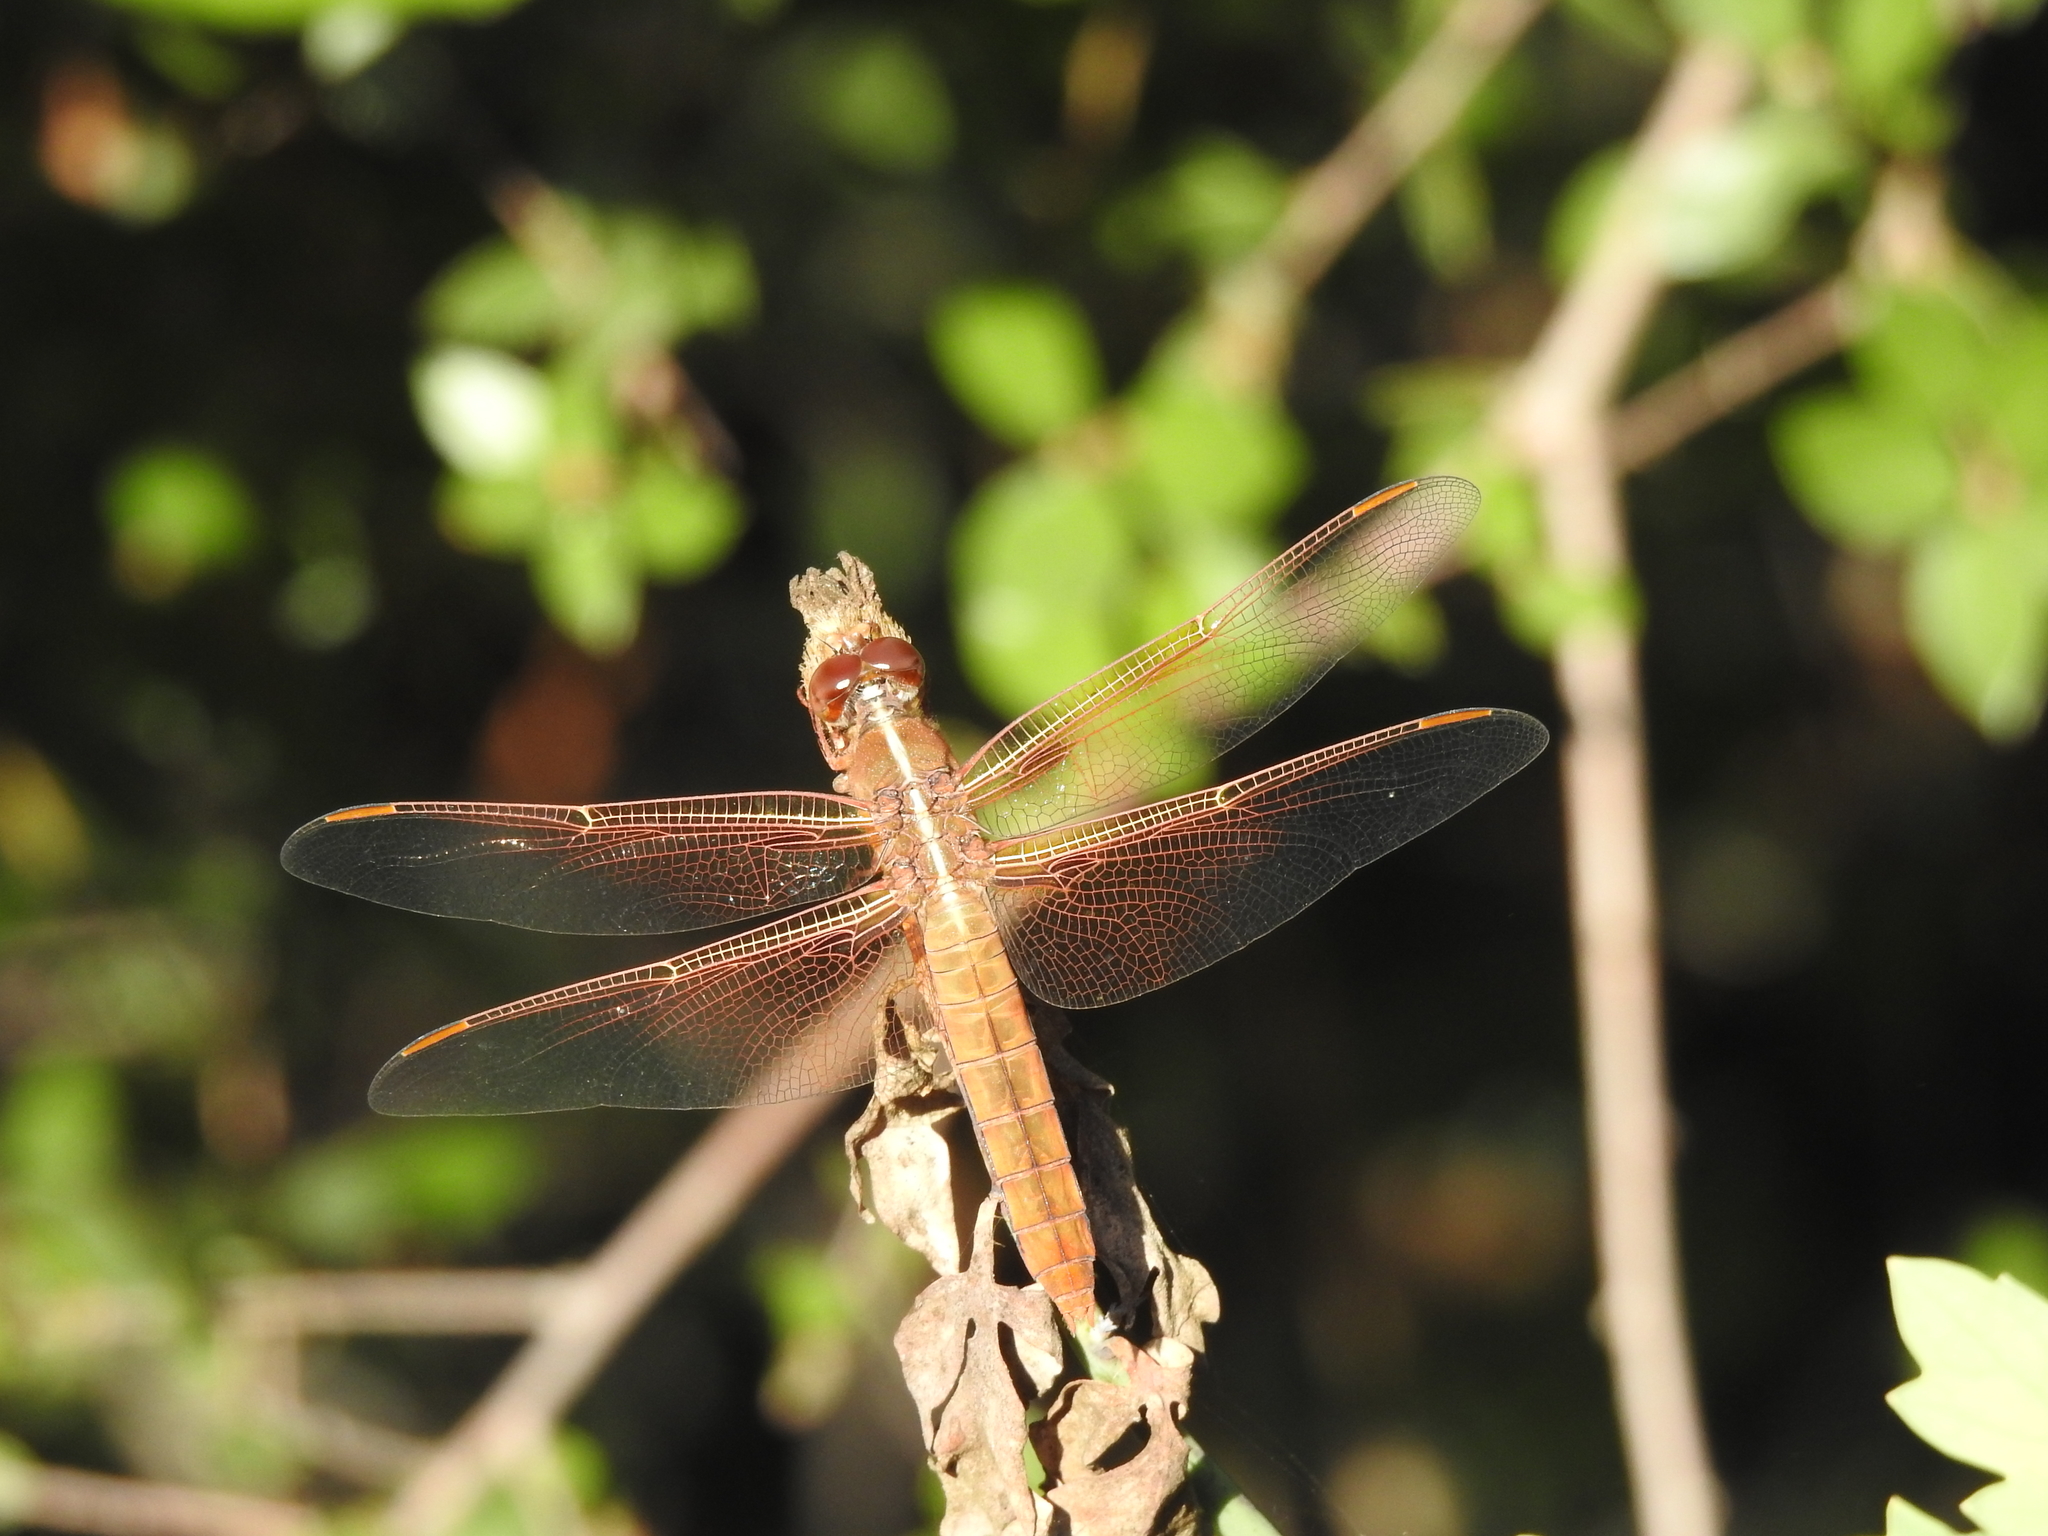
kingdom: Animalia
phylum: Arthropoda
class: Insecta
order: Odonata
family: Libellulidae
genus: Libellula
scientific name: Libellula saturata
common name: Flame skimmer
